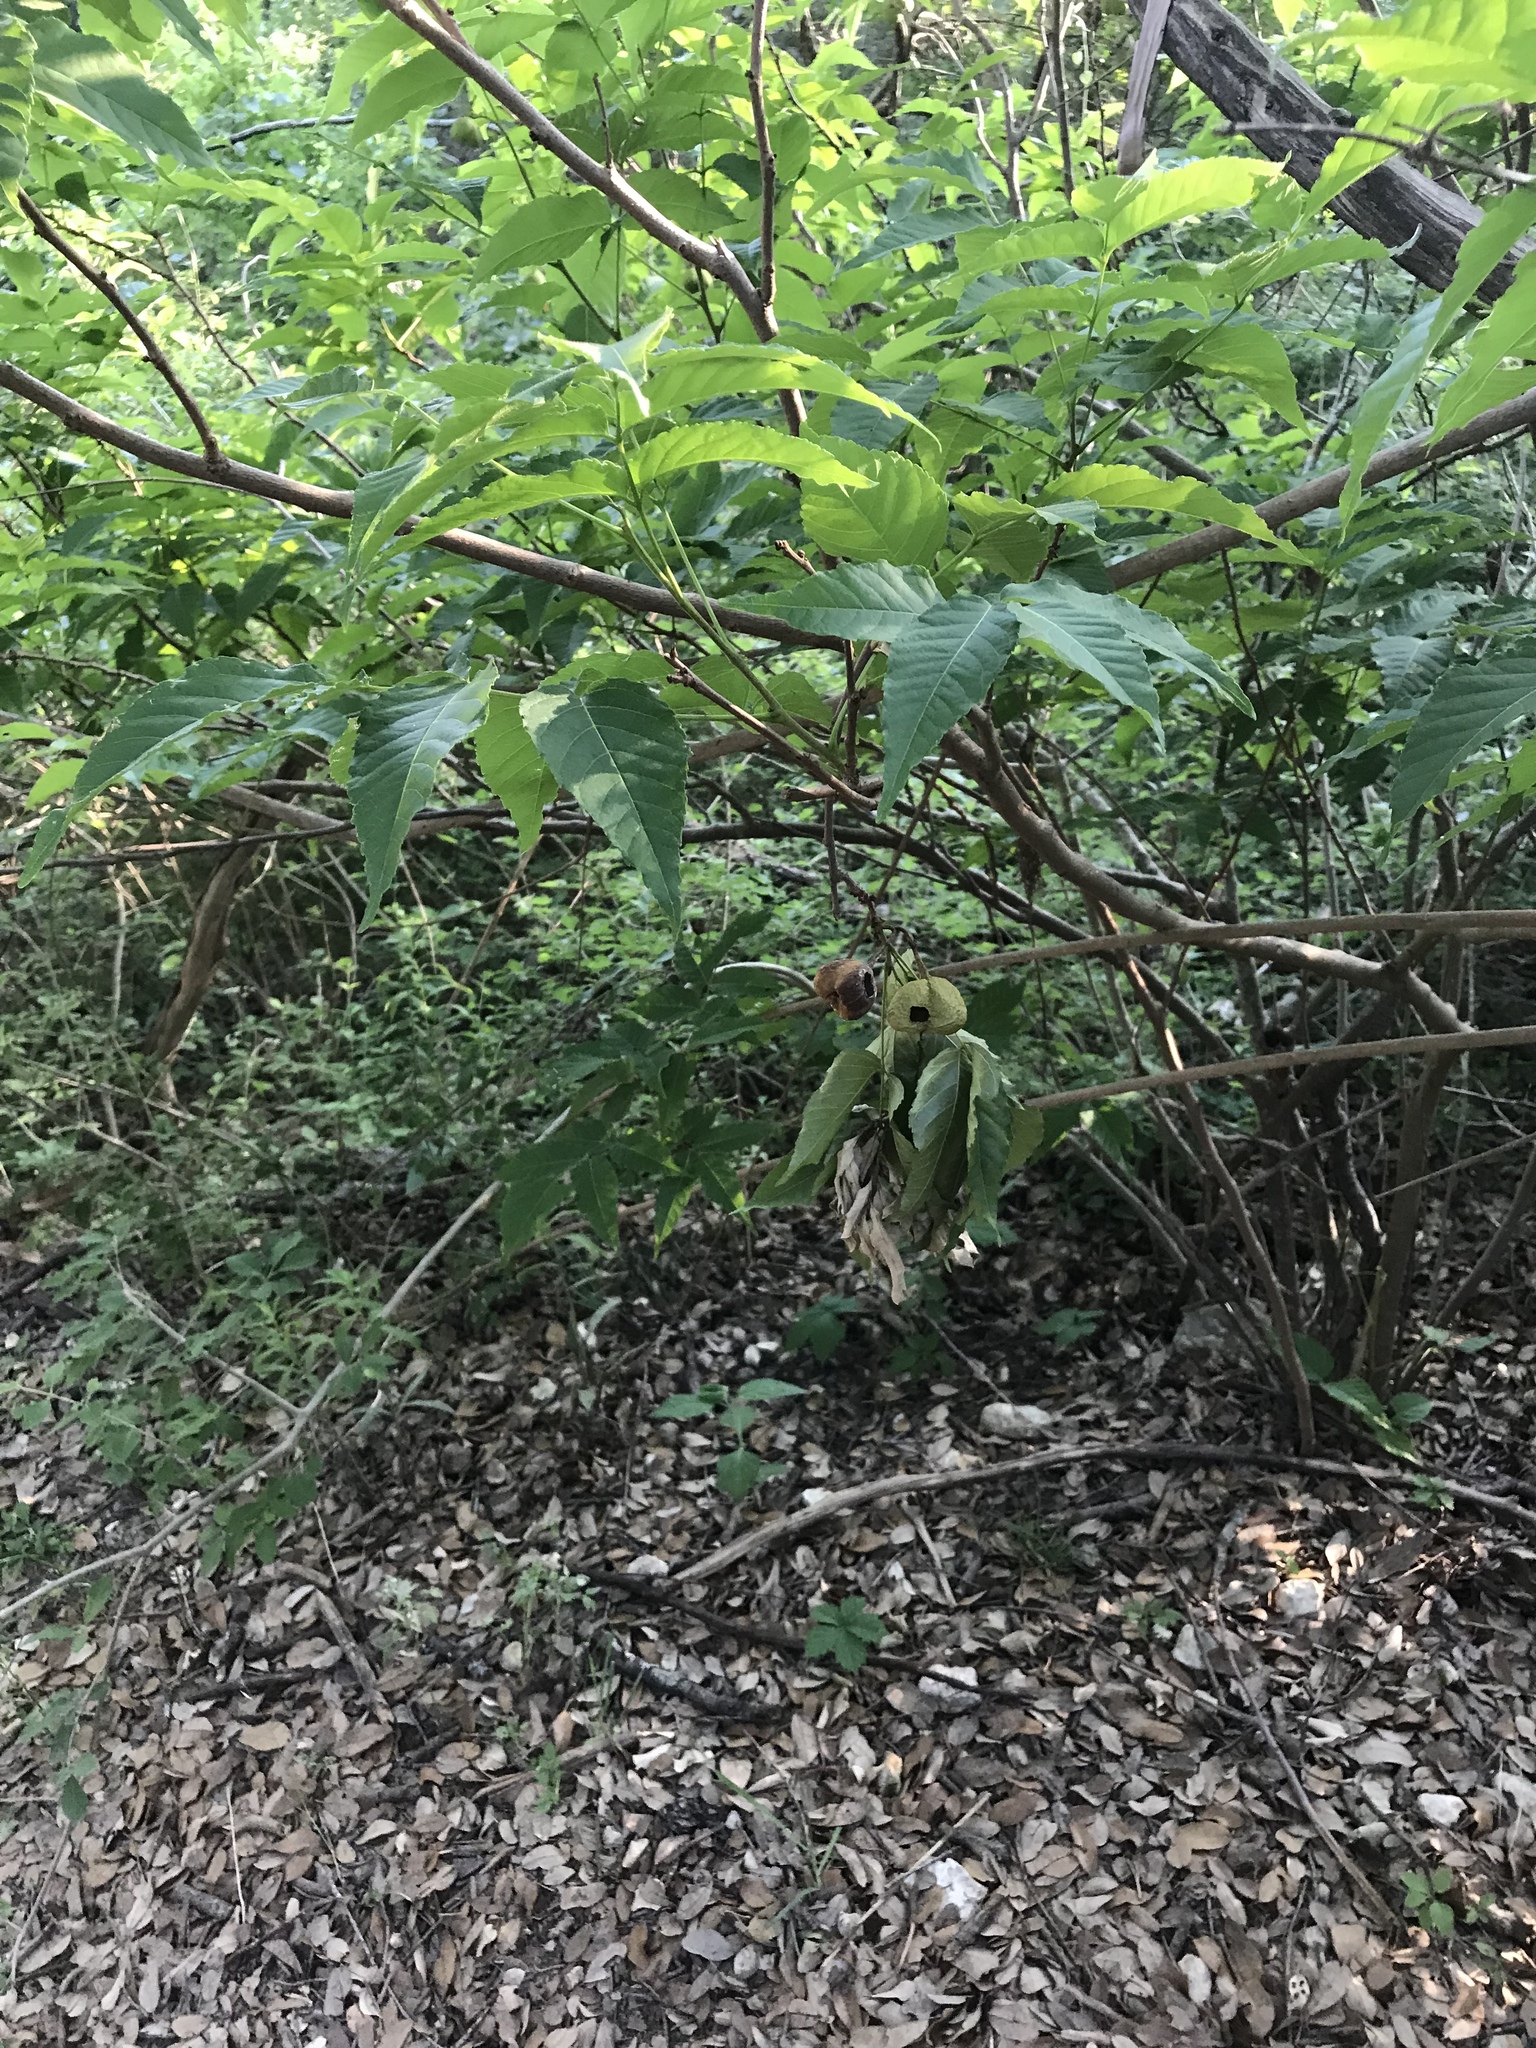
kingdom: Plantae
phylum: Tracheophyta
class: Magnoliopsida
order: Sapindales
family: Sapindaceae
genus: Ungnadia
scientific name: Ungnadia speciosa
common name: Texas-buckeye
